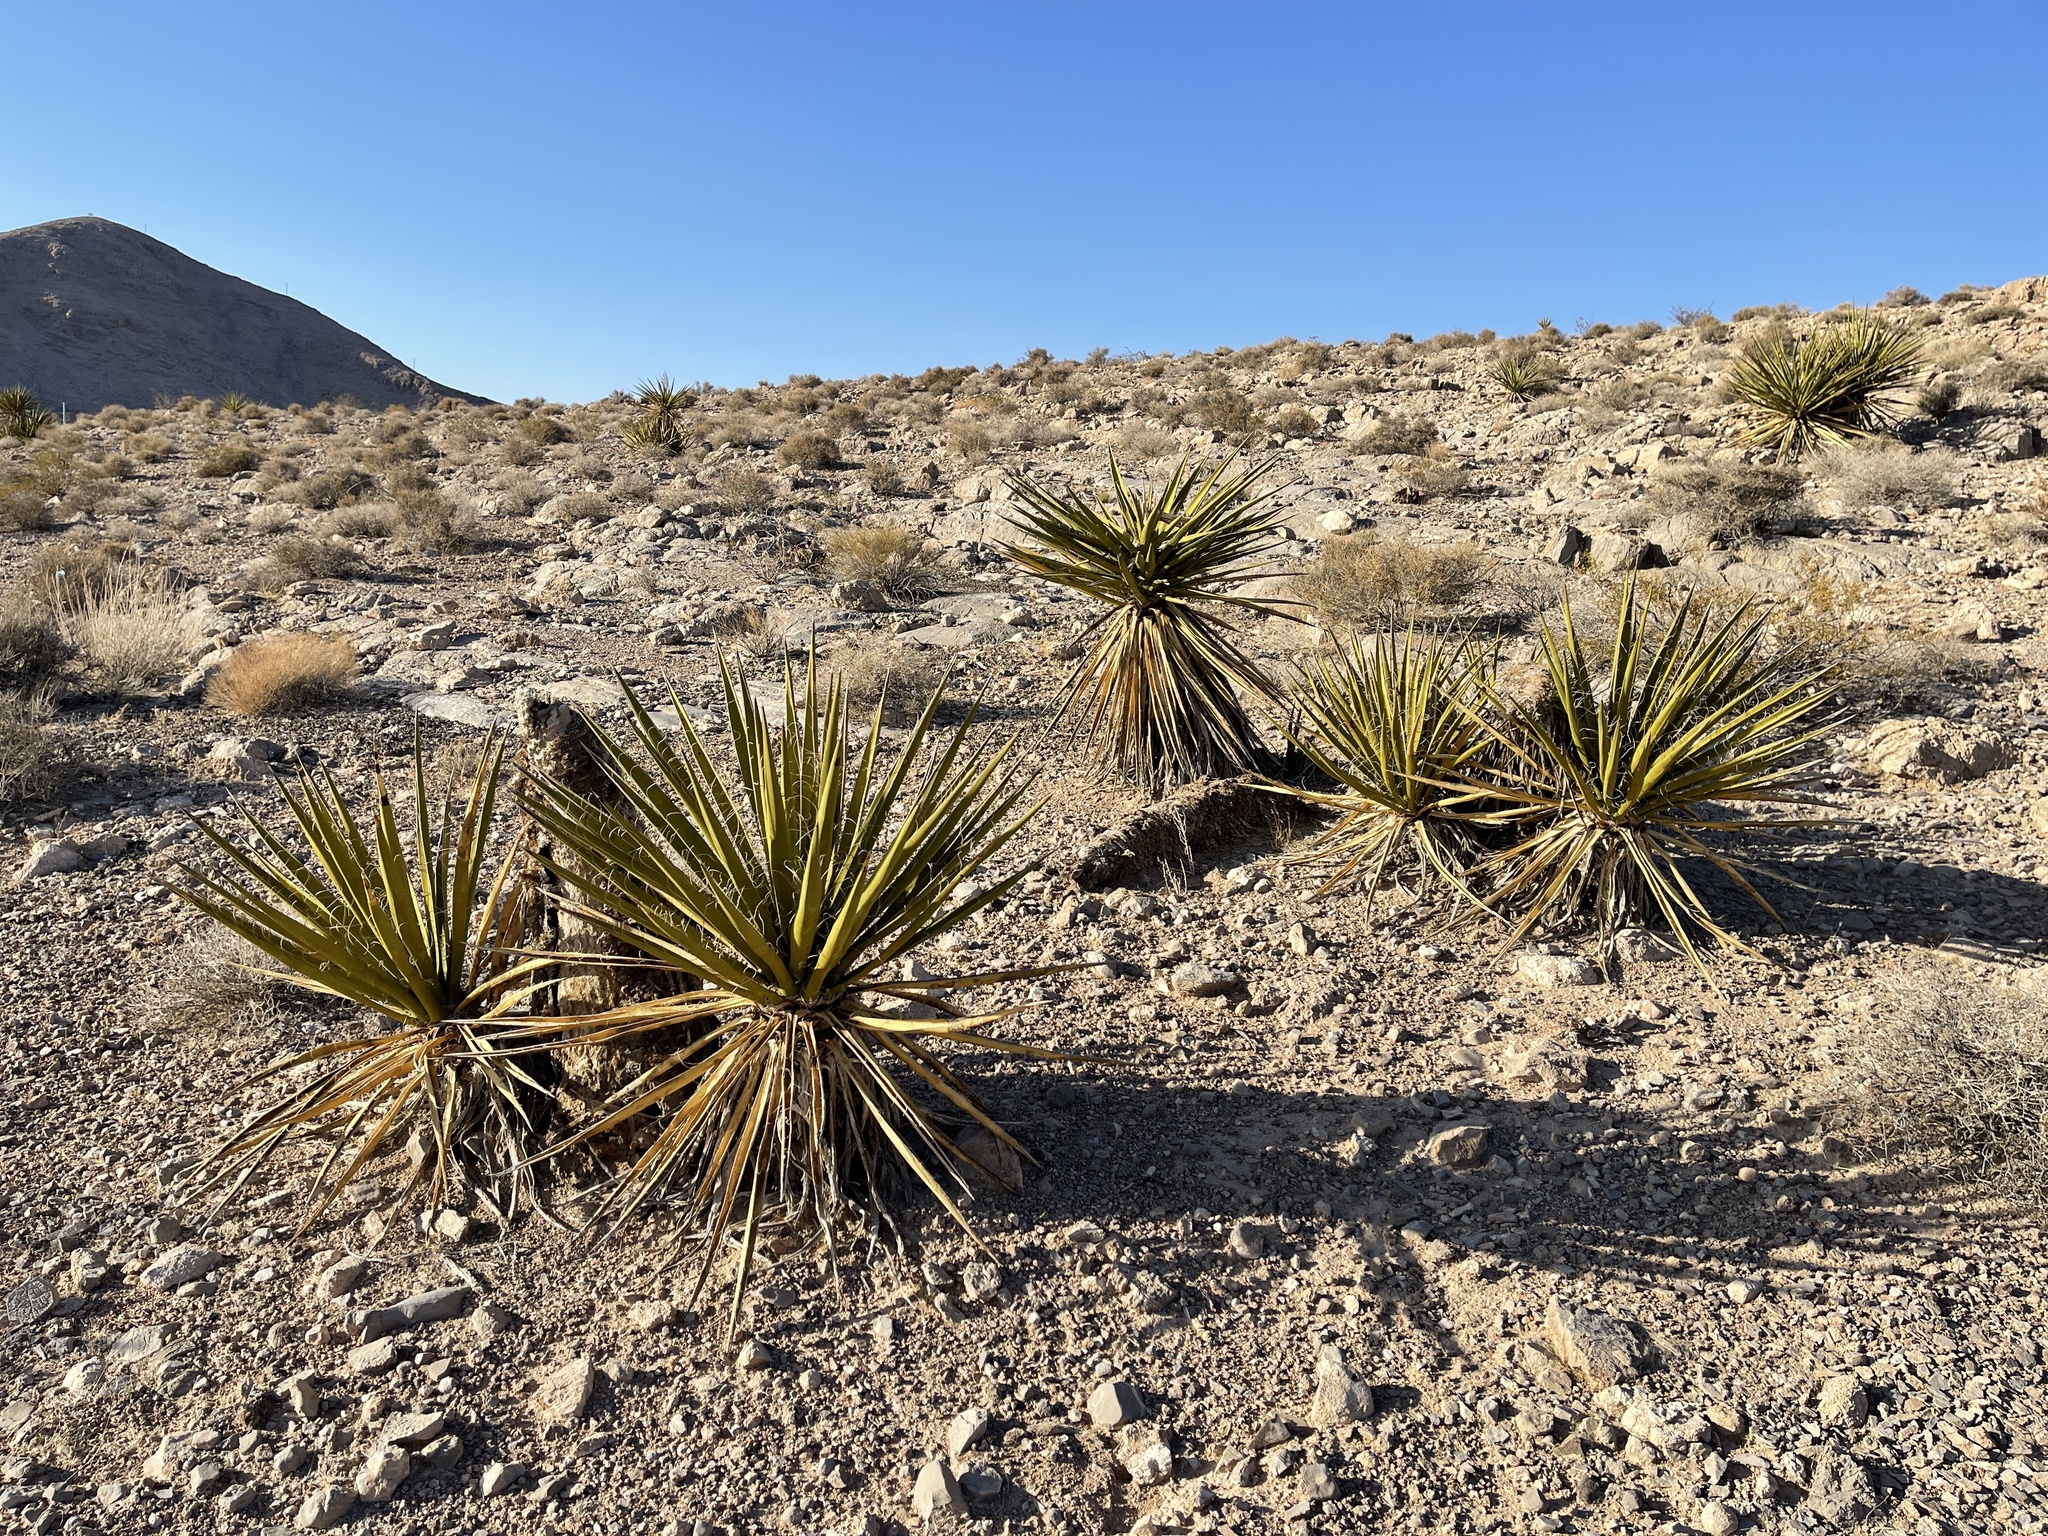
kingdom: Plantae
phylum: Tracheophyta
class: Liliopsida
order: Asparagales
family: Asparagaceae
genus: Yucca
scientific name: Yucca schidigera
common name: Mojave yucca
